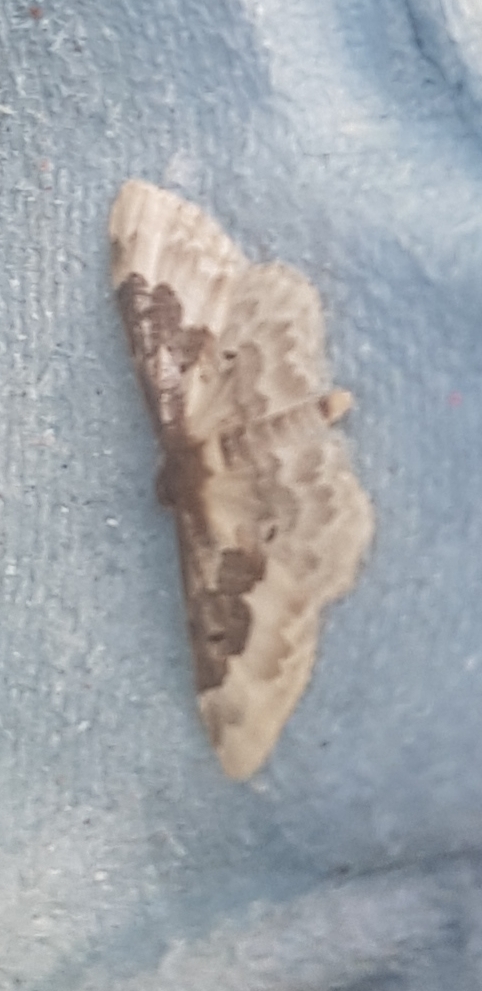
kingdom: Animalia
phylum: Arthropoda
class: Insecta
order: Lepidoptera
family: Geometridae
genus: Idaea
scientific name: Idaea rusticata
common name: Least carpet
